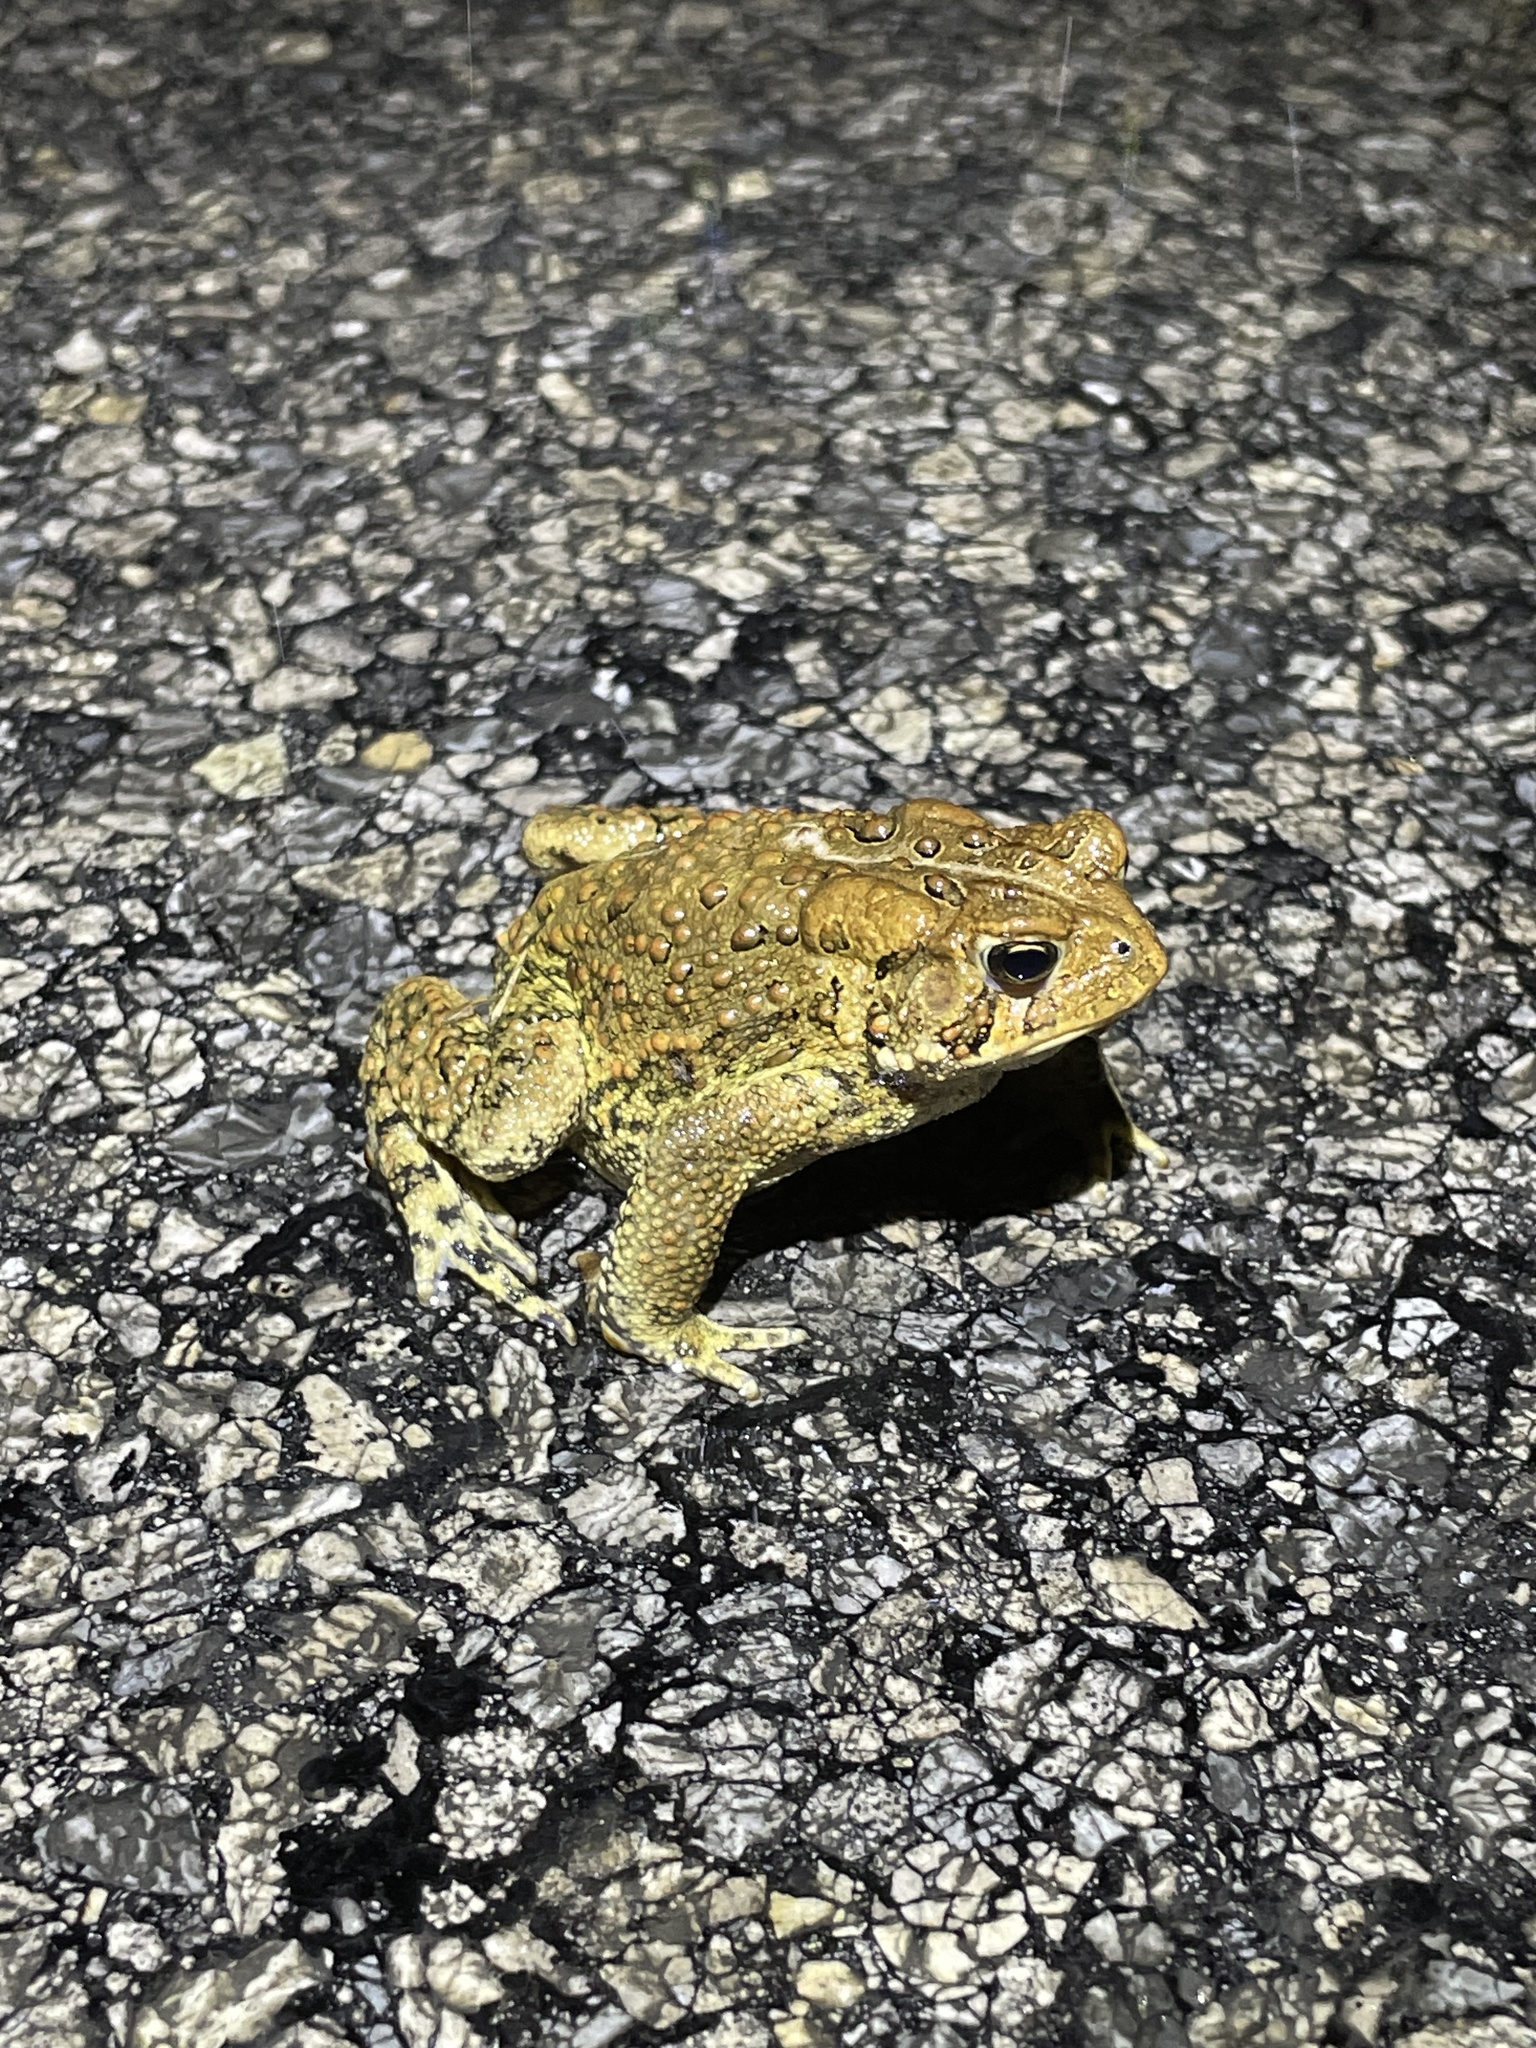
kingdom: Animalia
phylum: Chordata
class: Amphibia
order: Anura
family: Bufonidae
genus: Anaxyrus
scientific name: Anaxyrus americanus
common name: American toad
